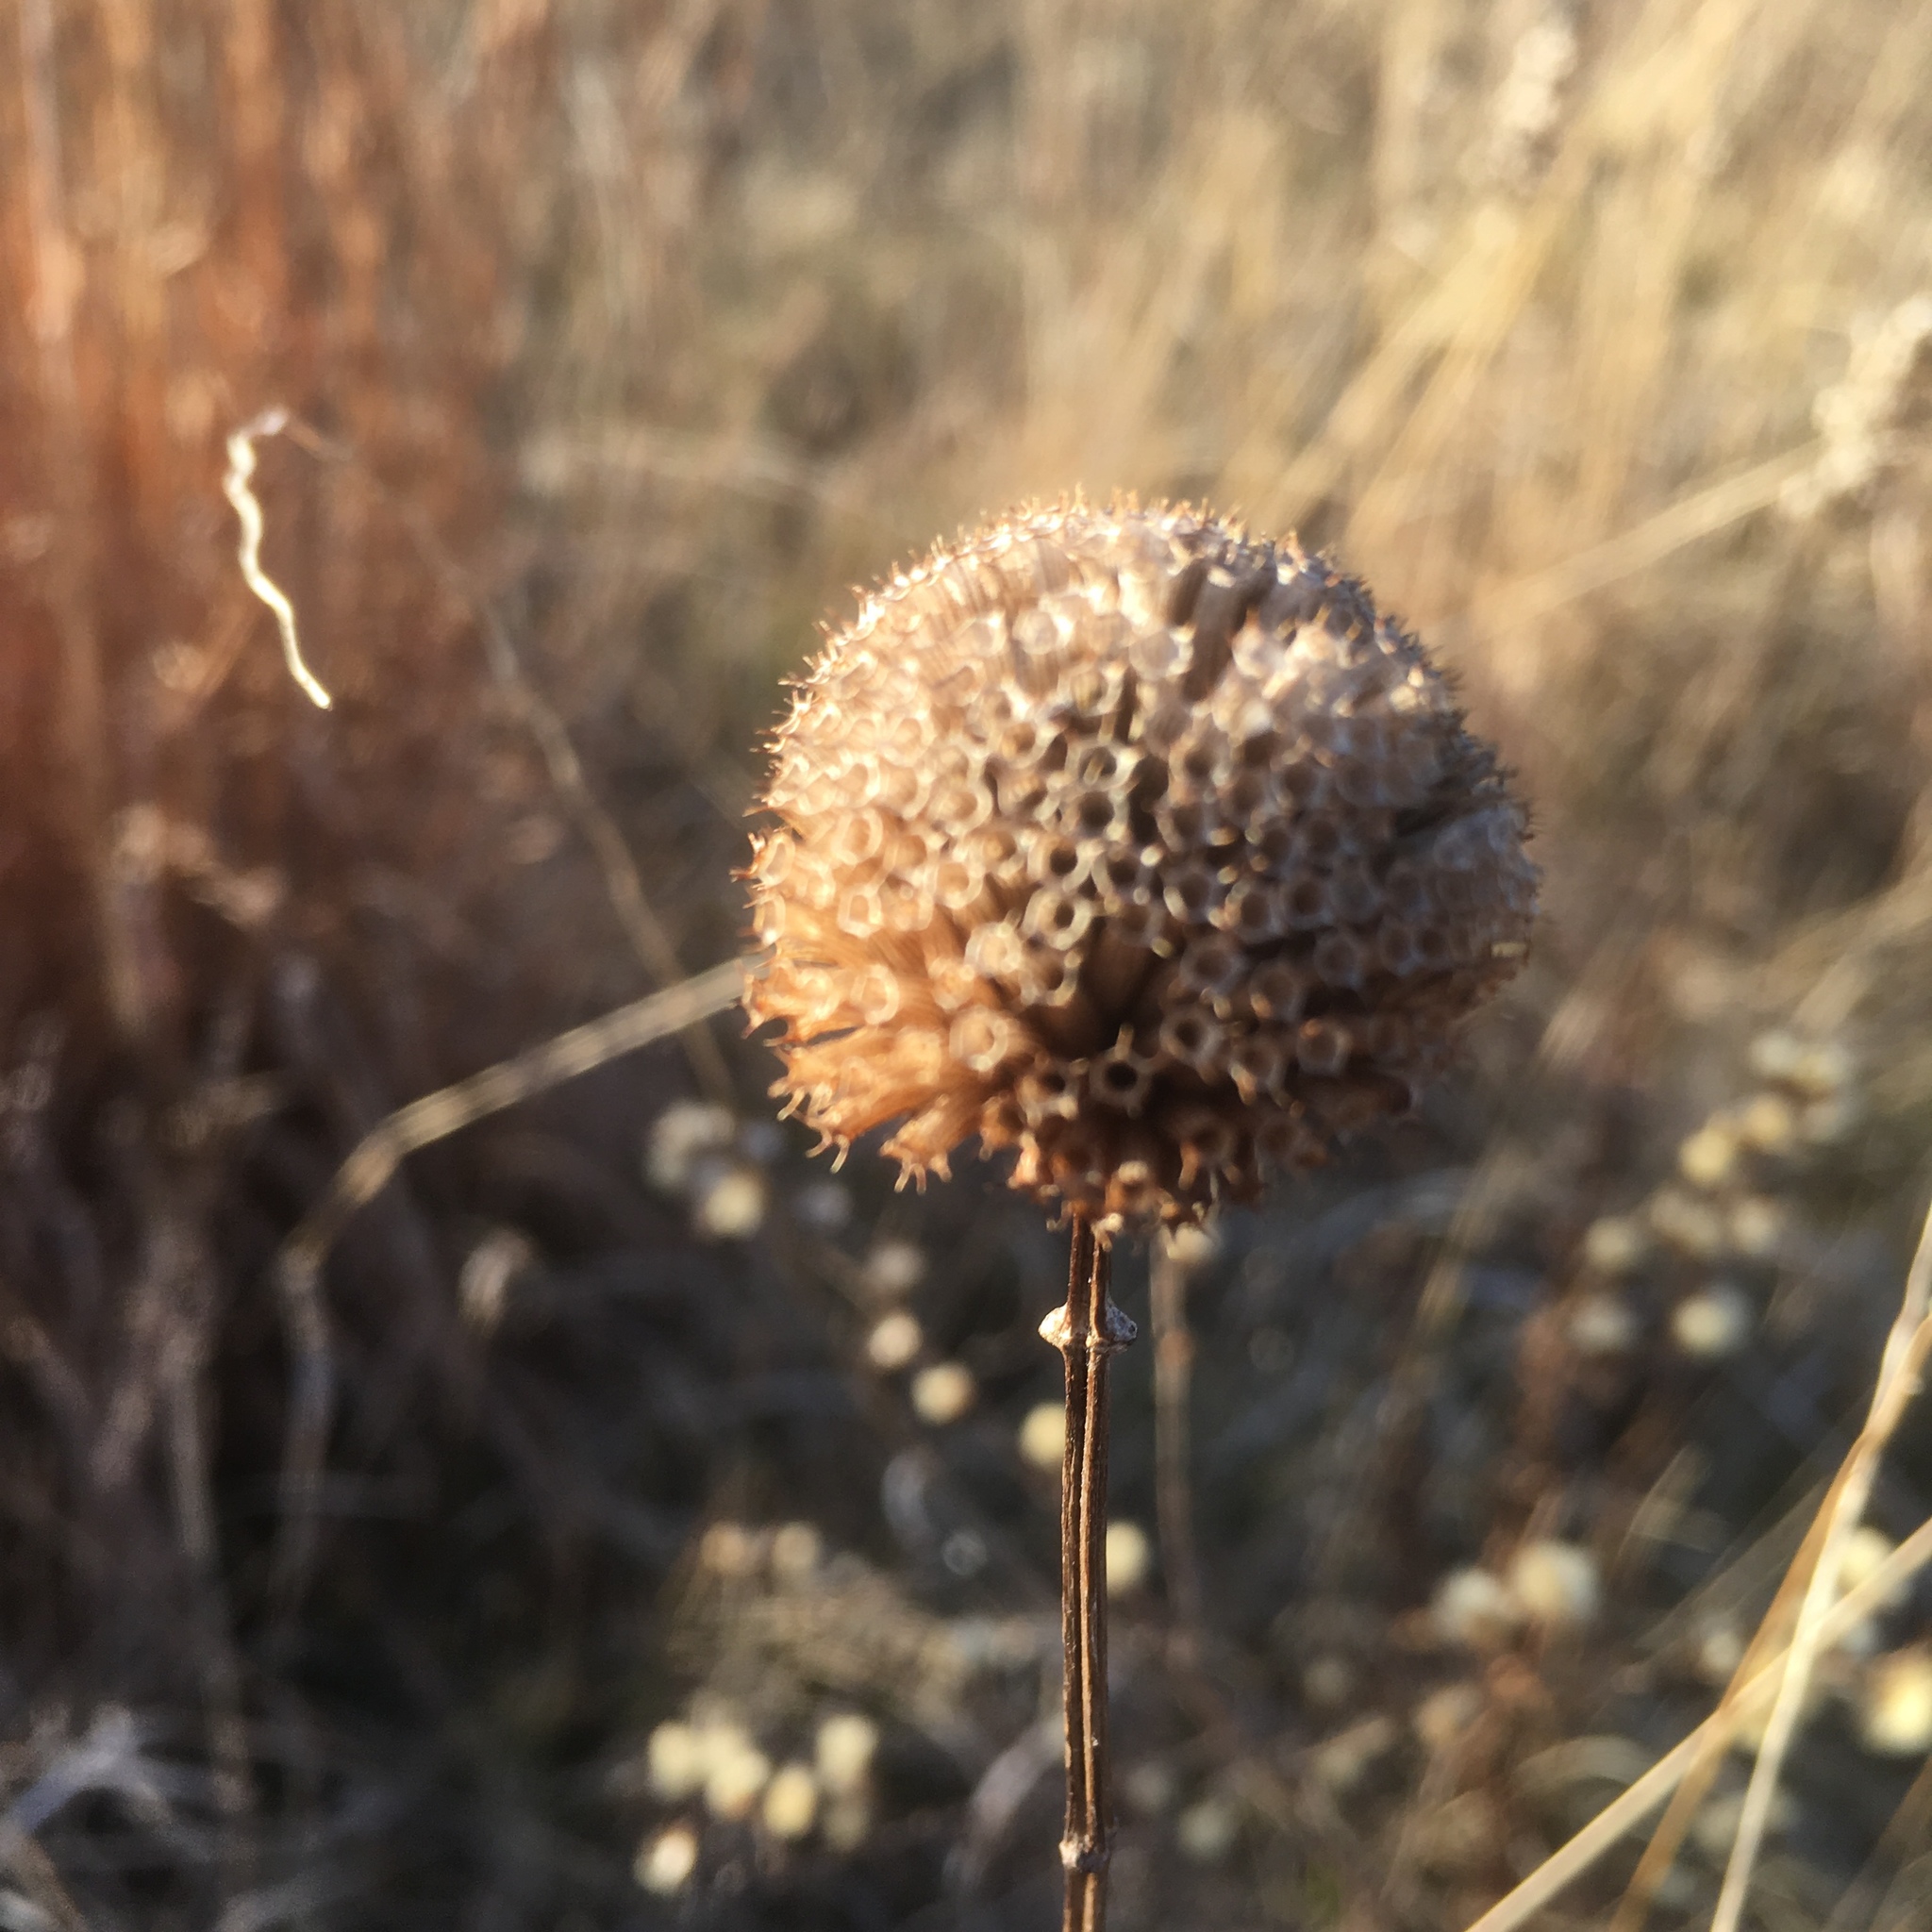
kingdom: Plantae
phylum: Tracheophyta
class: Magnoliopsida
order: Lamiales
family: Lamiaceae
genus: Monarda
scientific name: Monarda fistulosa
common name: Purple beebalm
